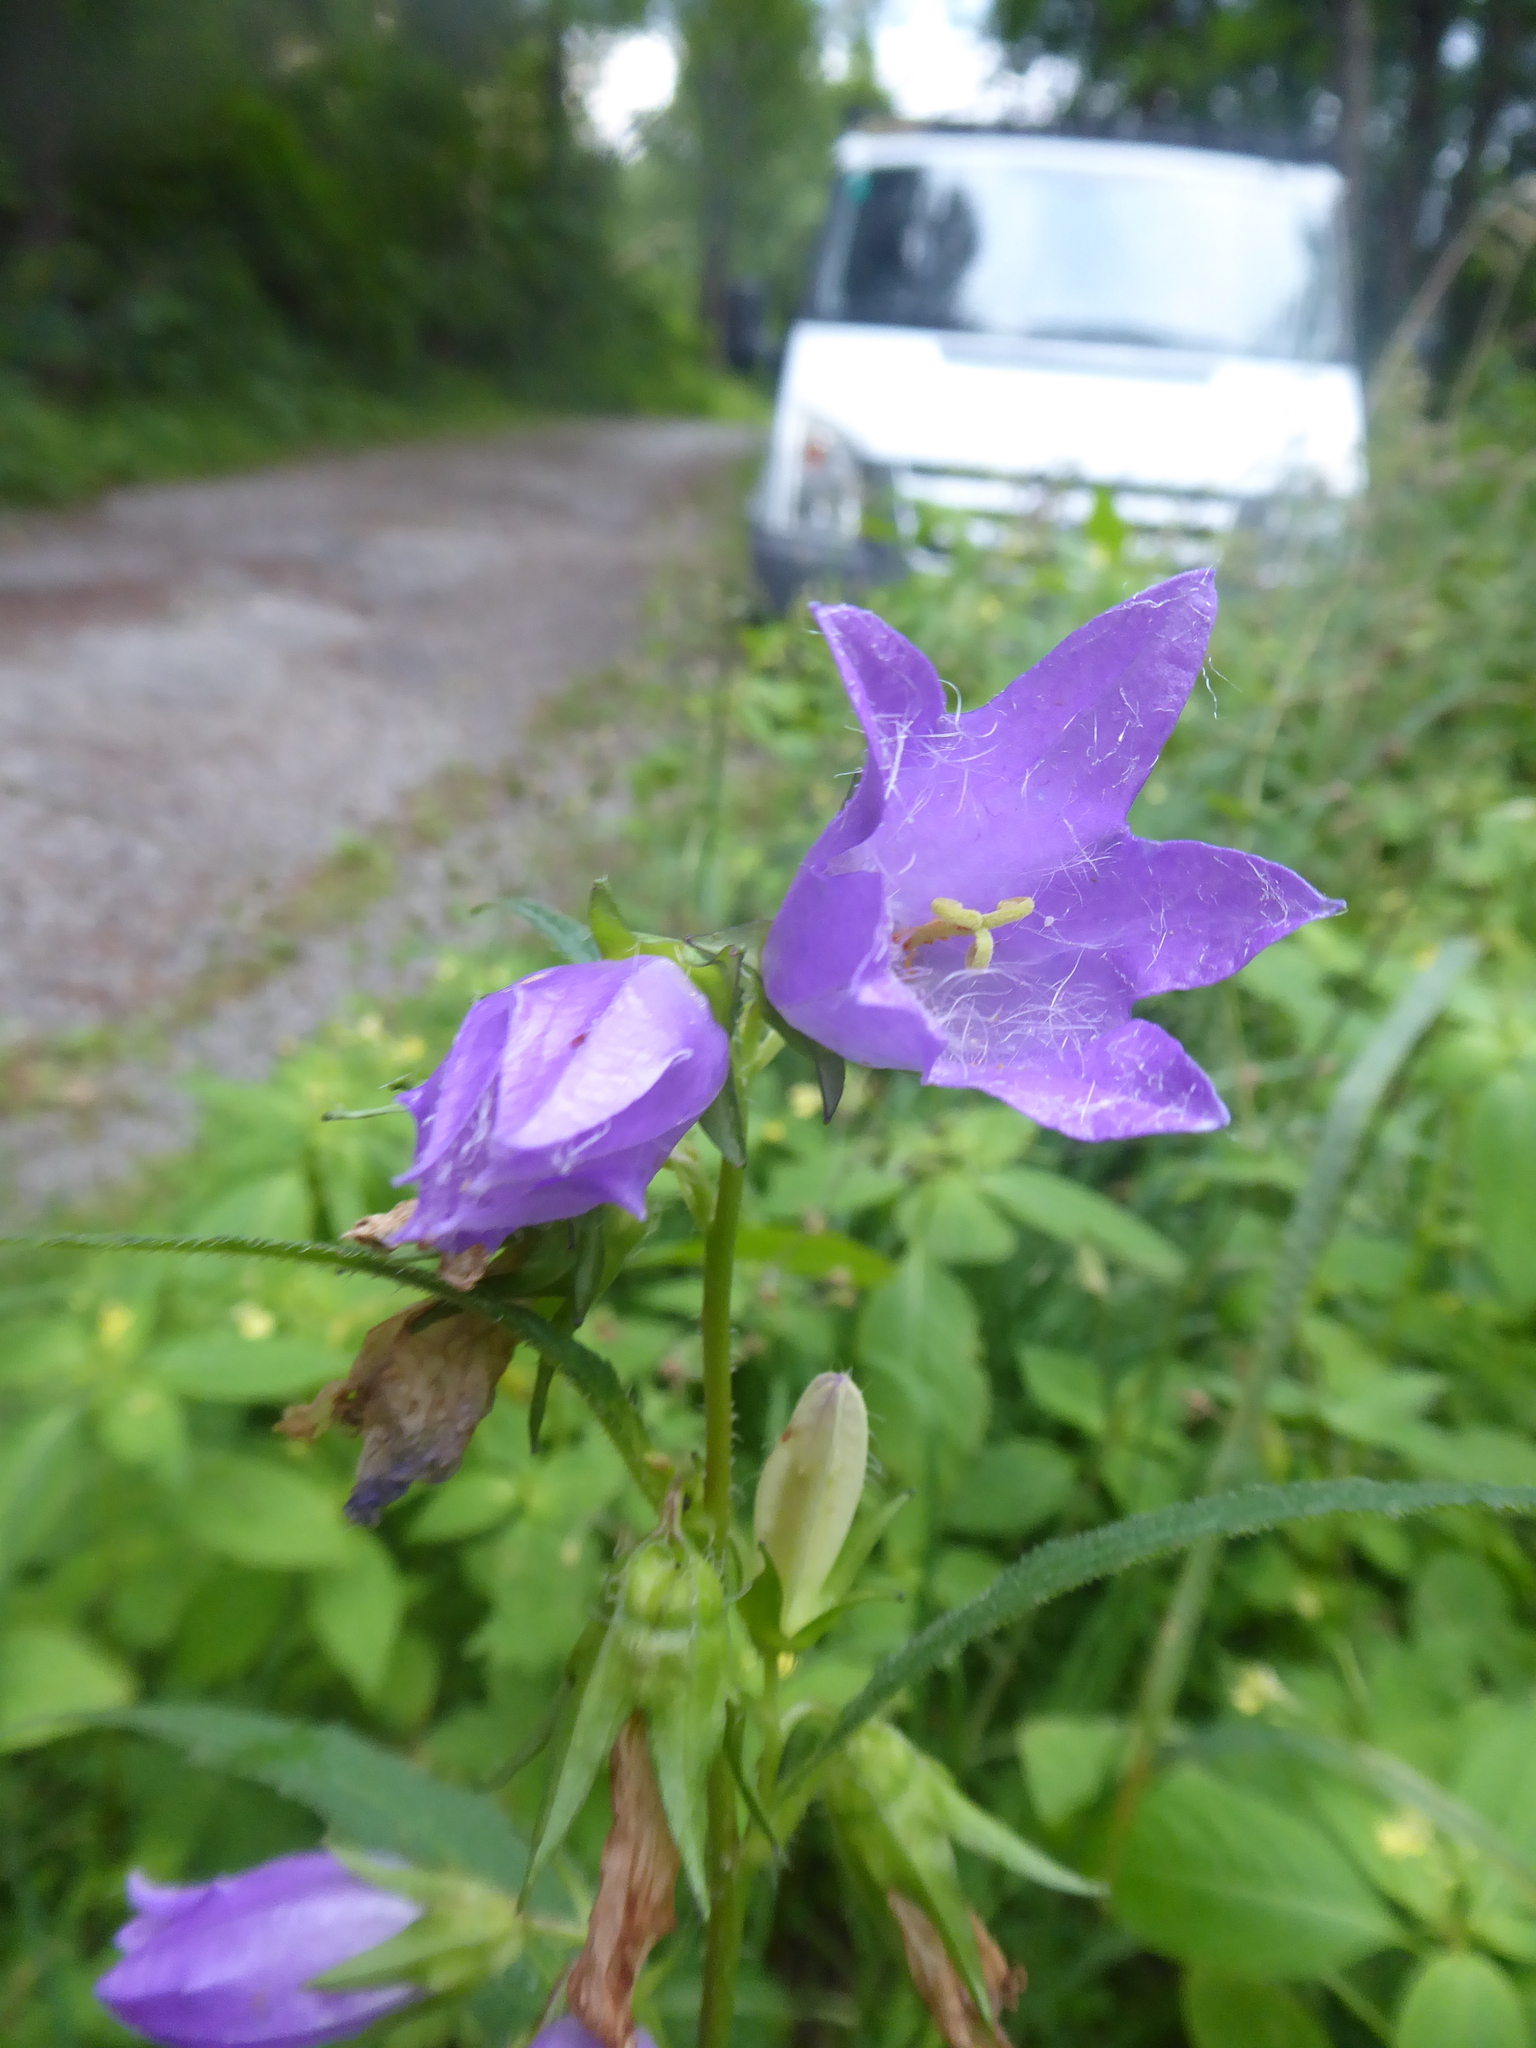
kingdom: Plantae
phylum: Tracheophyta
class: Magnoliopsida
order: Asterales
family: Campanulaceae
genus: Campanula
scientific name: Campanula trachelium
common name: Nettle-leaved bellflower
